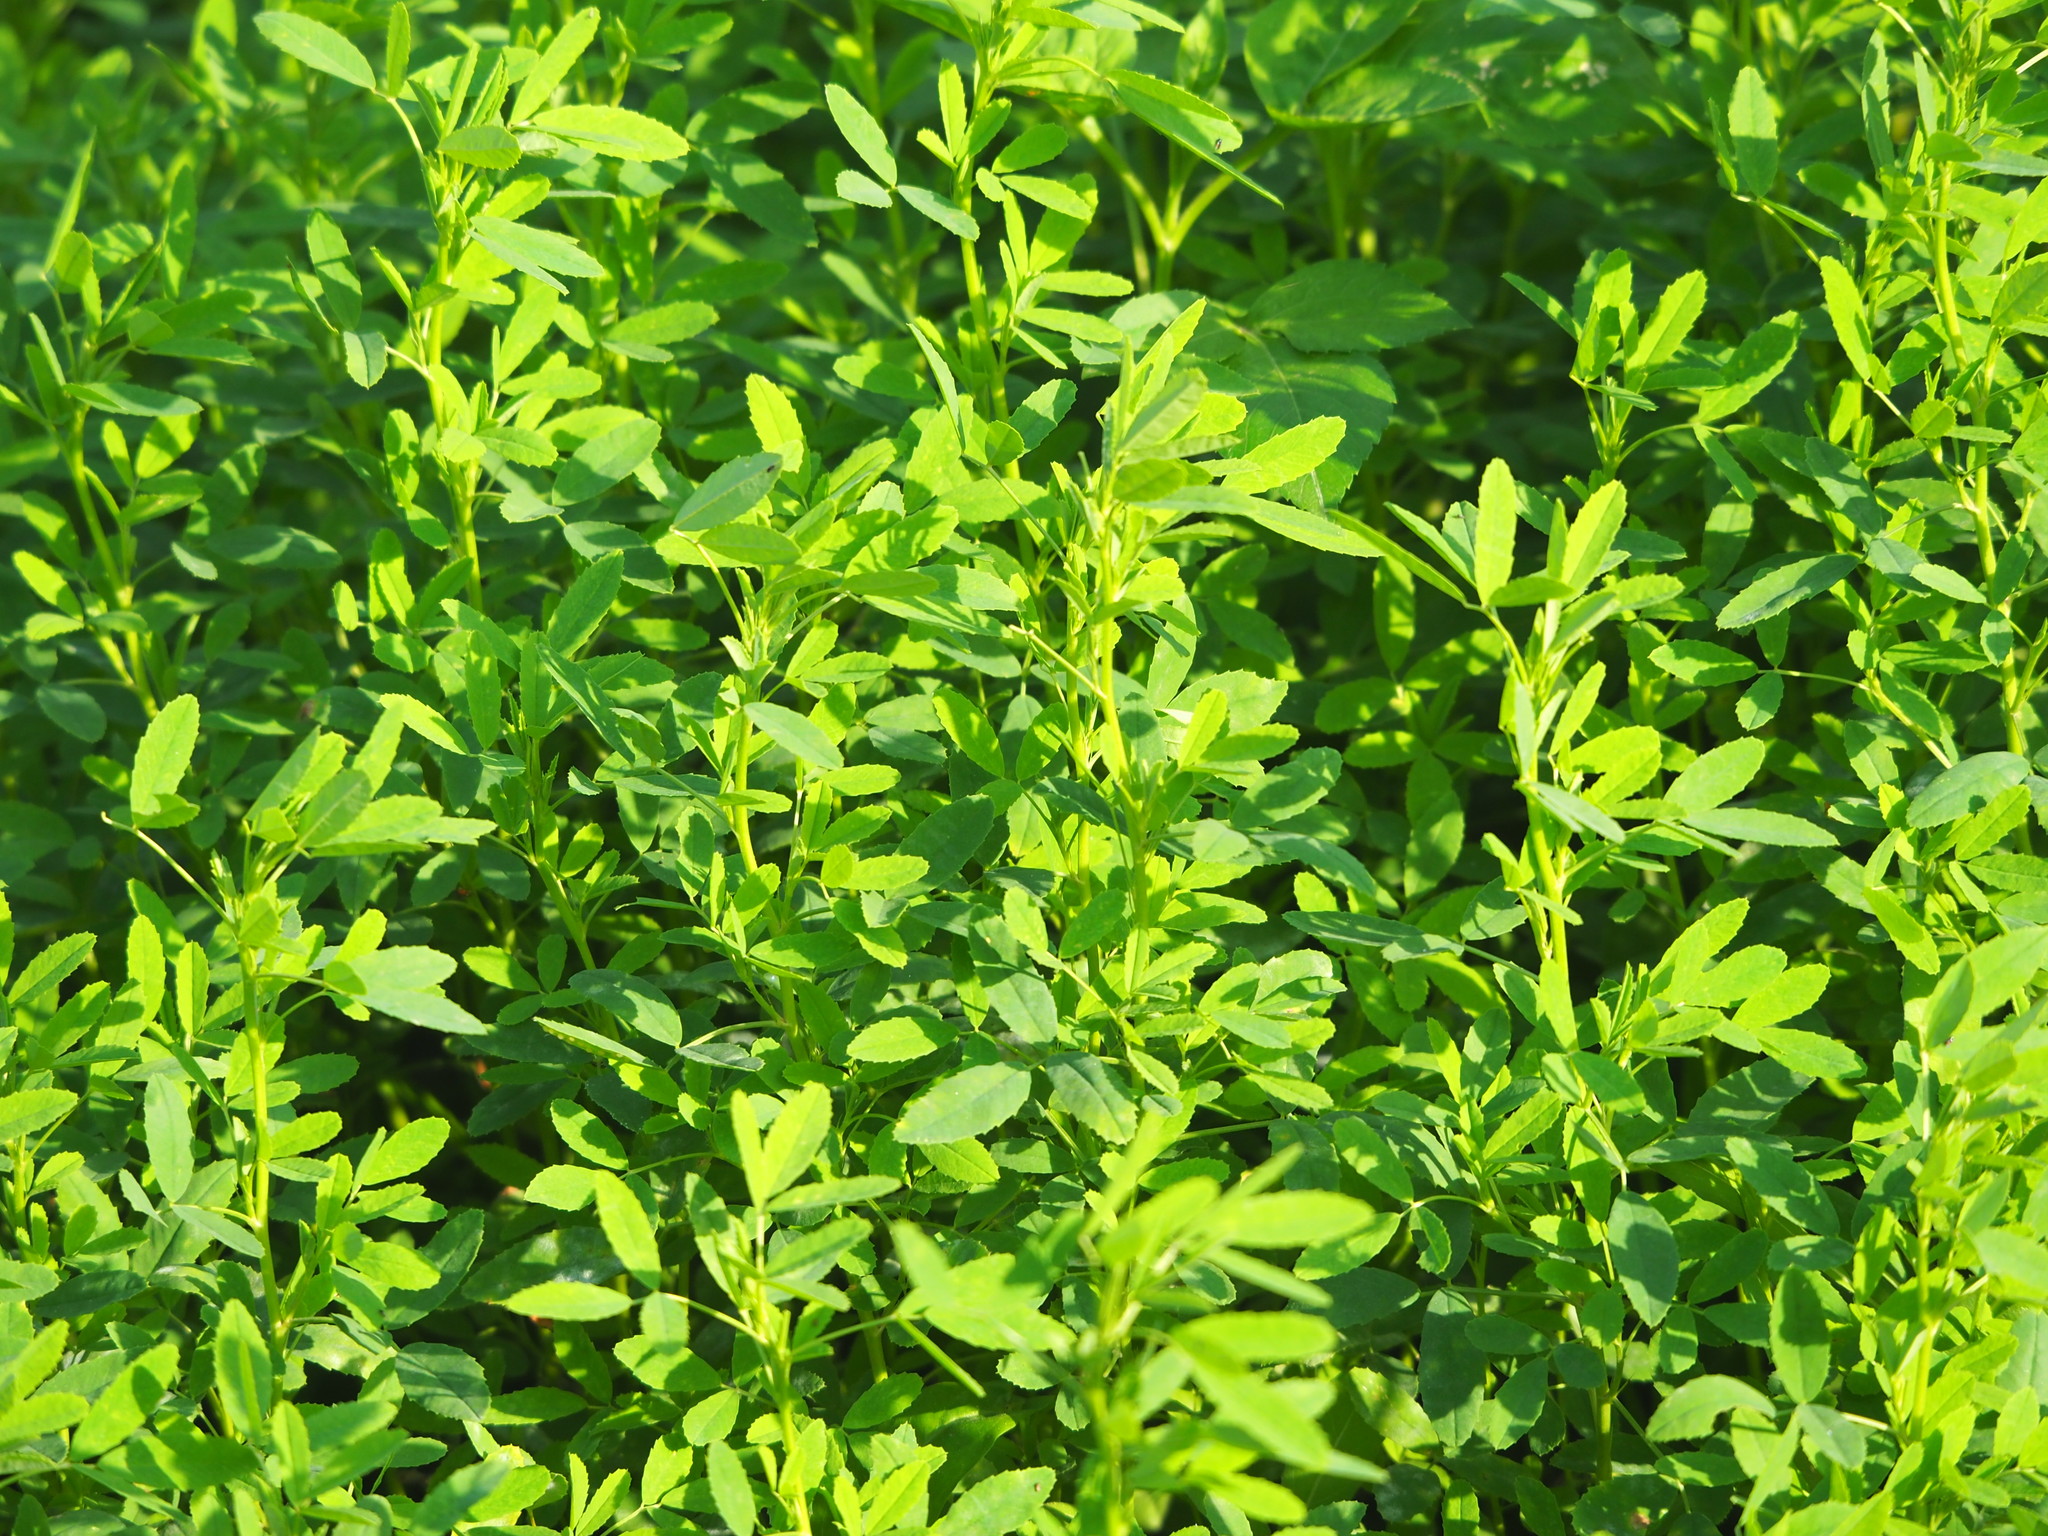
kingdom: Plantae
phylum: Tracheophyta
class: Magnoliopsida
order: Fabales
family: Fabaceae
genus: Melilotus
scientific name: Melilotus indicus
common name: Small melilot
